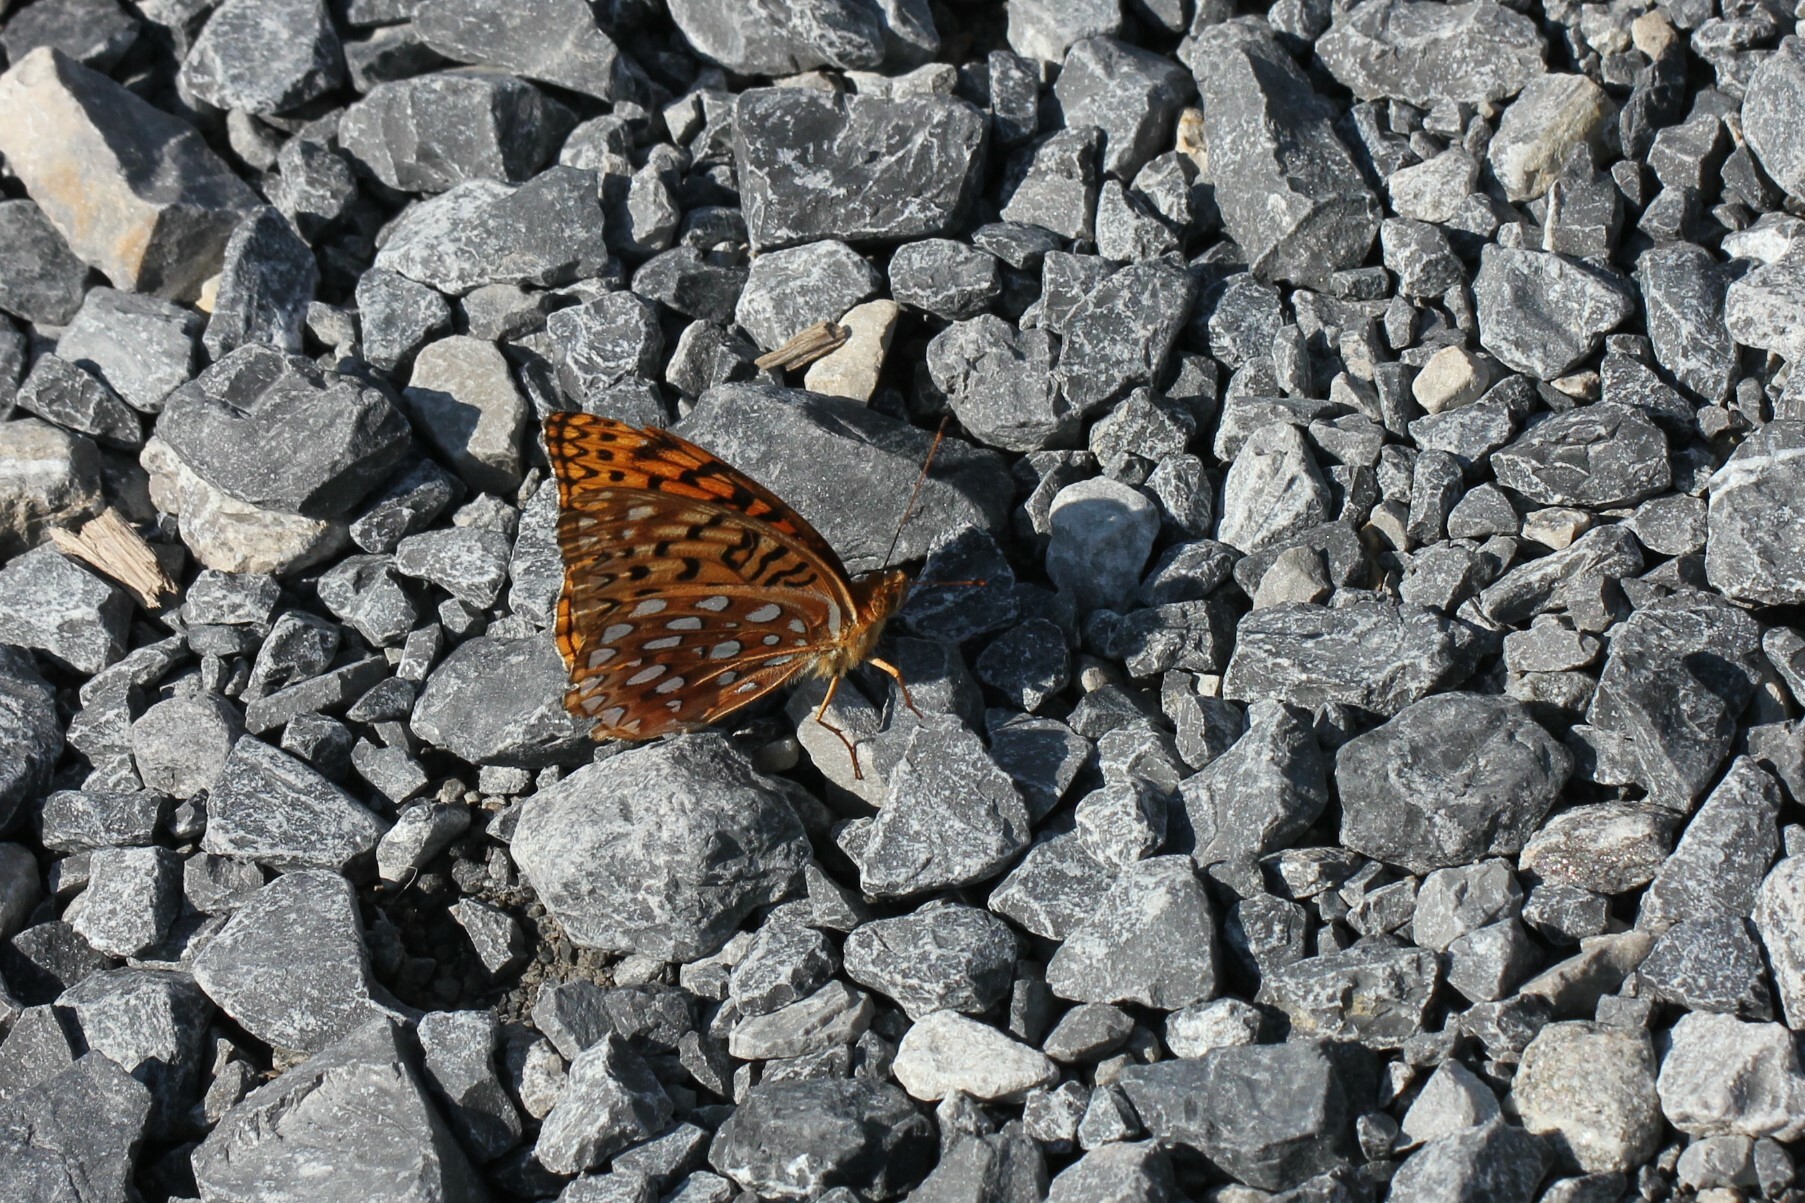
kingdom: Animalia
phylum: Arthropoda
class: Insecta
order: Lepidoptera
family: Nymphalidae
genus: Speyeria
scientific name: Speyeria aphrodite
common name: Aphrodite friitllary
